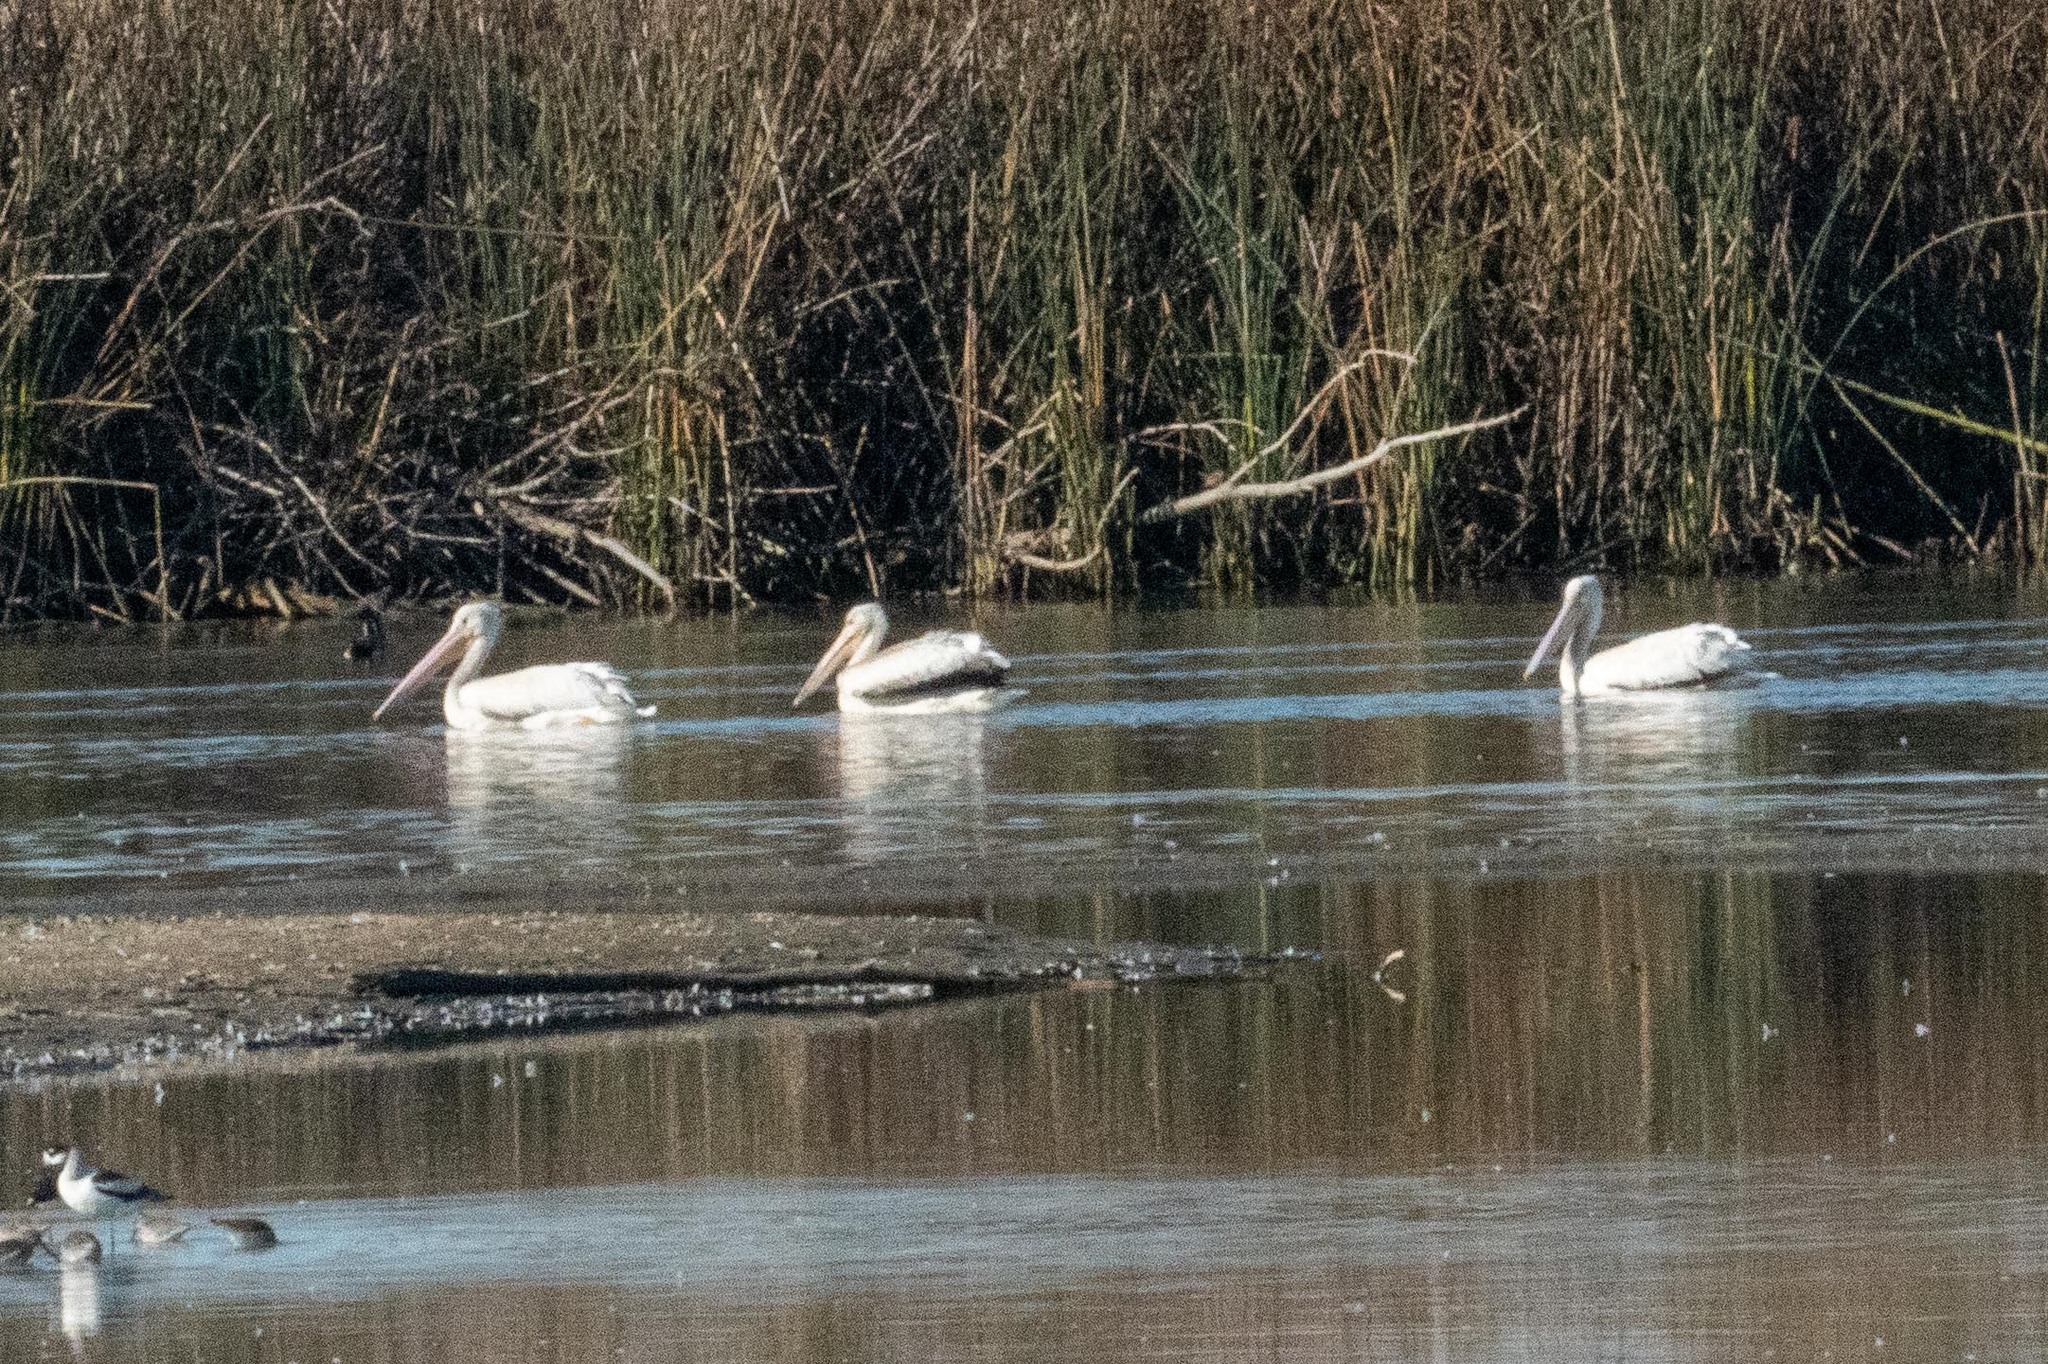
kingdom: Animalia
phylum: Chordata
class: Aves
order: Pelecaniformes
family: Pelecanidae
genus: Pelecanus
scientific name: Pelecanus erythrorhynchos
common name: American white pelican
